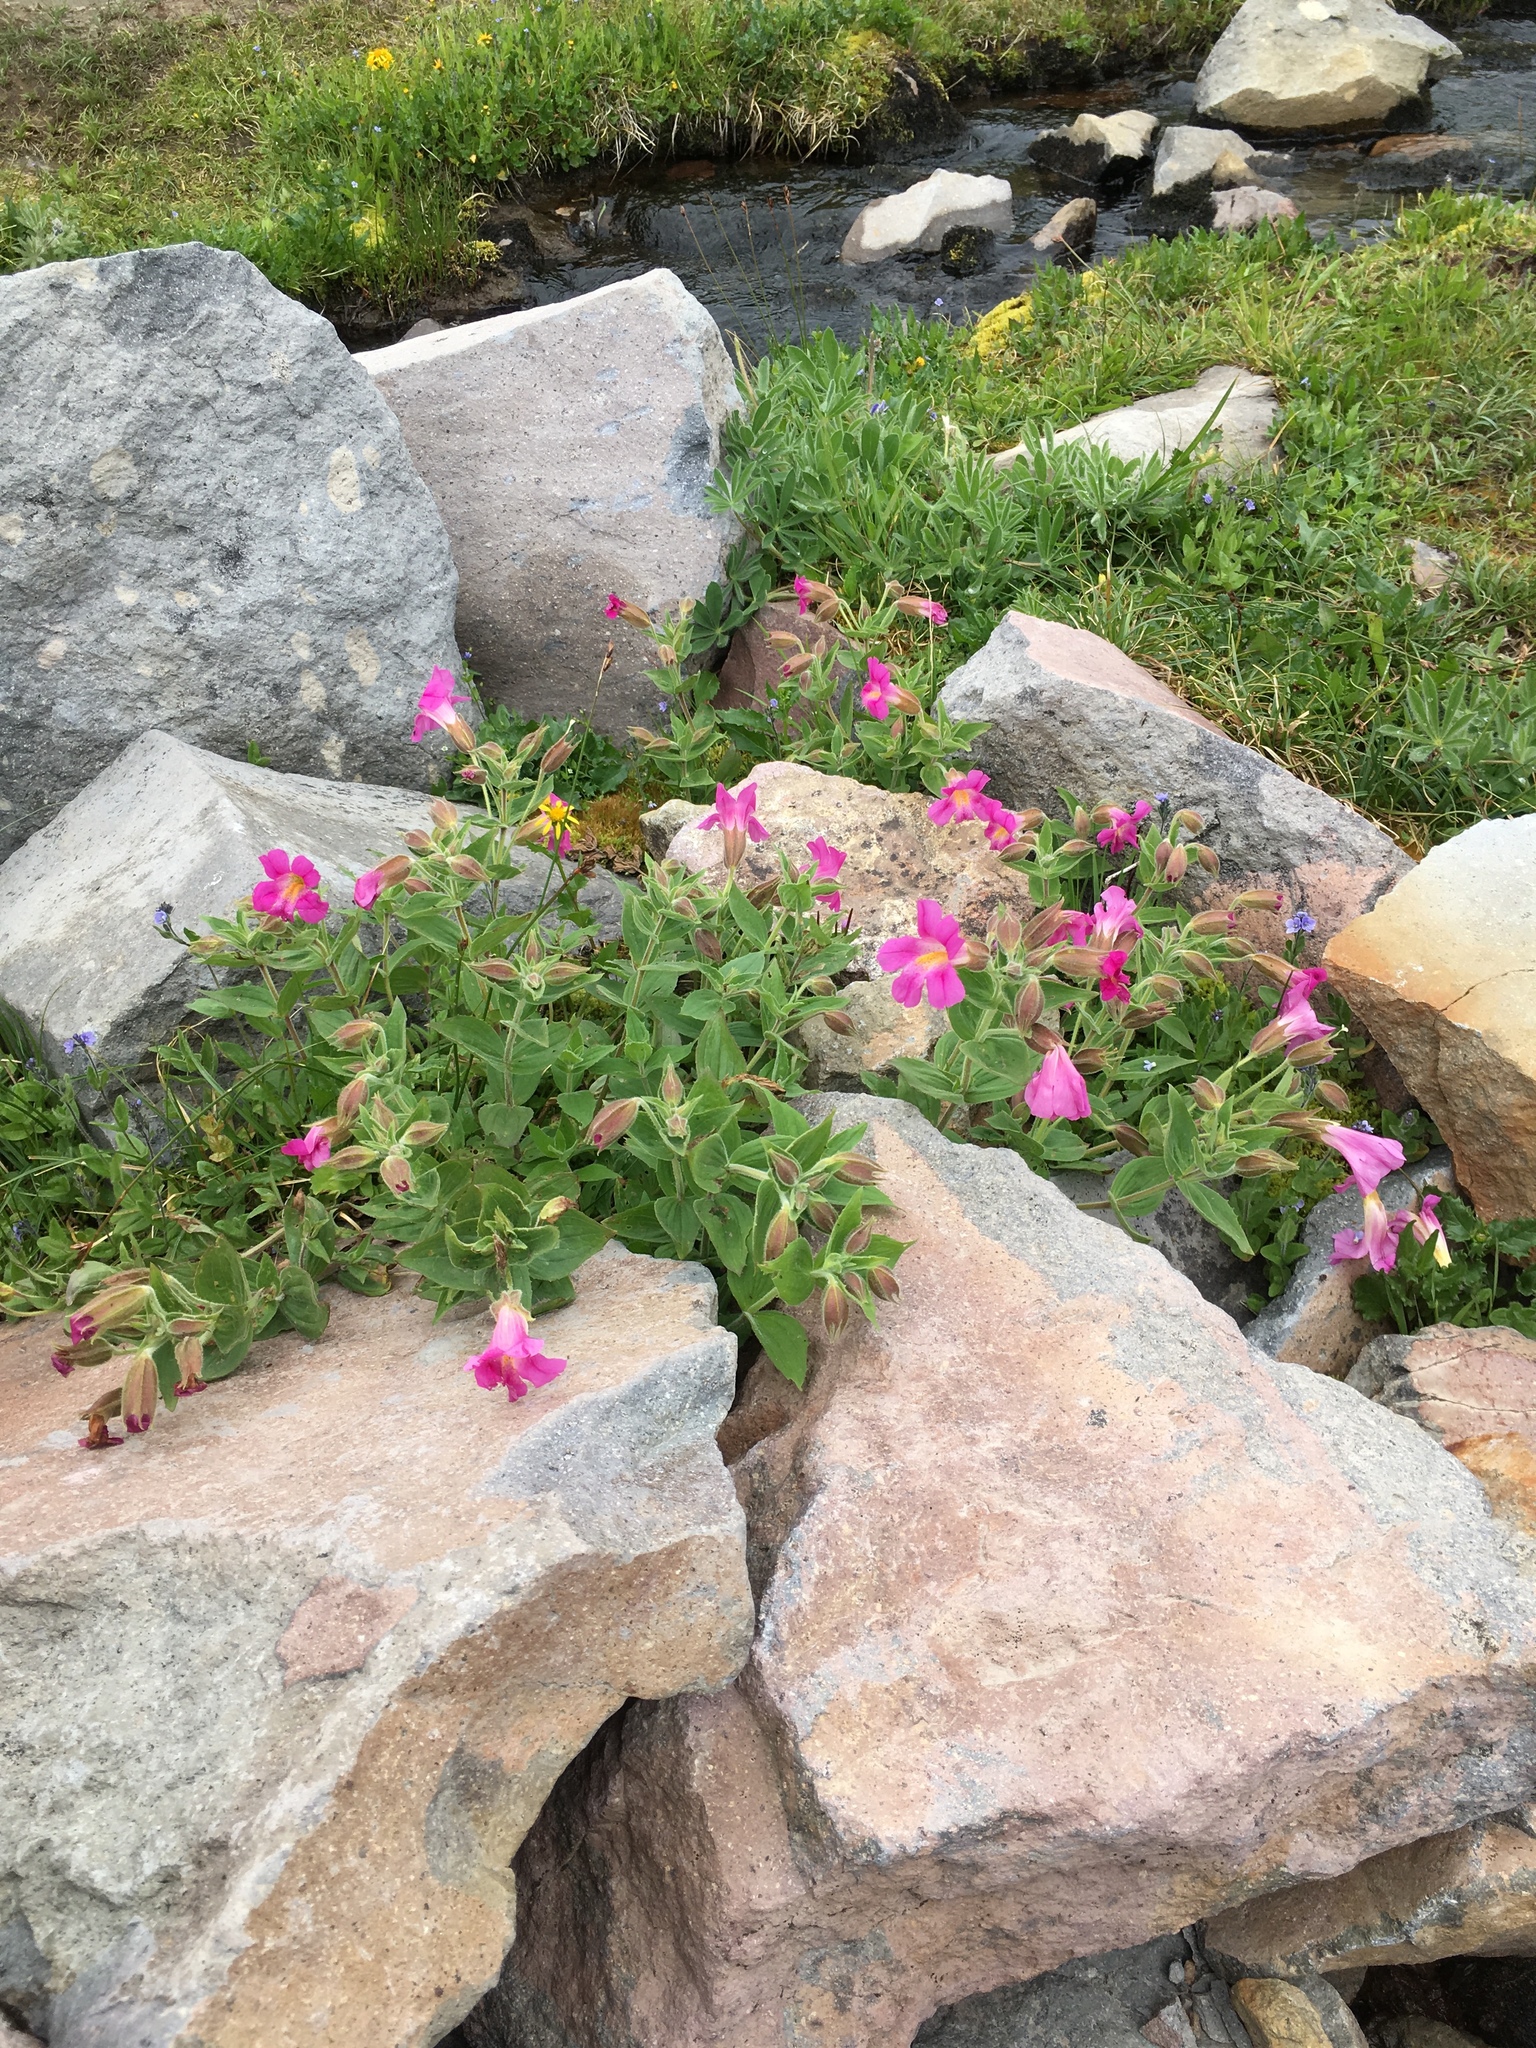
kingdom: Plantae
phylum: Tracheophyta
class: Magnoliopsida
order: Lamiales
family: Phrymaceae
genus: Erythranthe
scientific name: Erythranthe lewisii
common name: Lewis's monkey-flower
